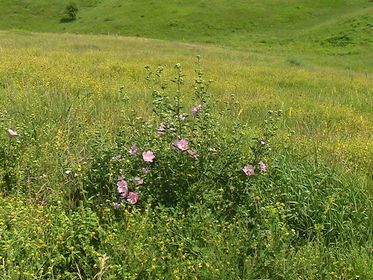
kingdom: Plantae
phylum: Tracheophyta
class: Magnoliopsida
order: Malvales
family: Malvaceae
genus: Malva
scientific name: Malva thuringiaca
